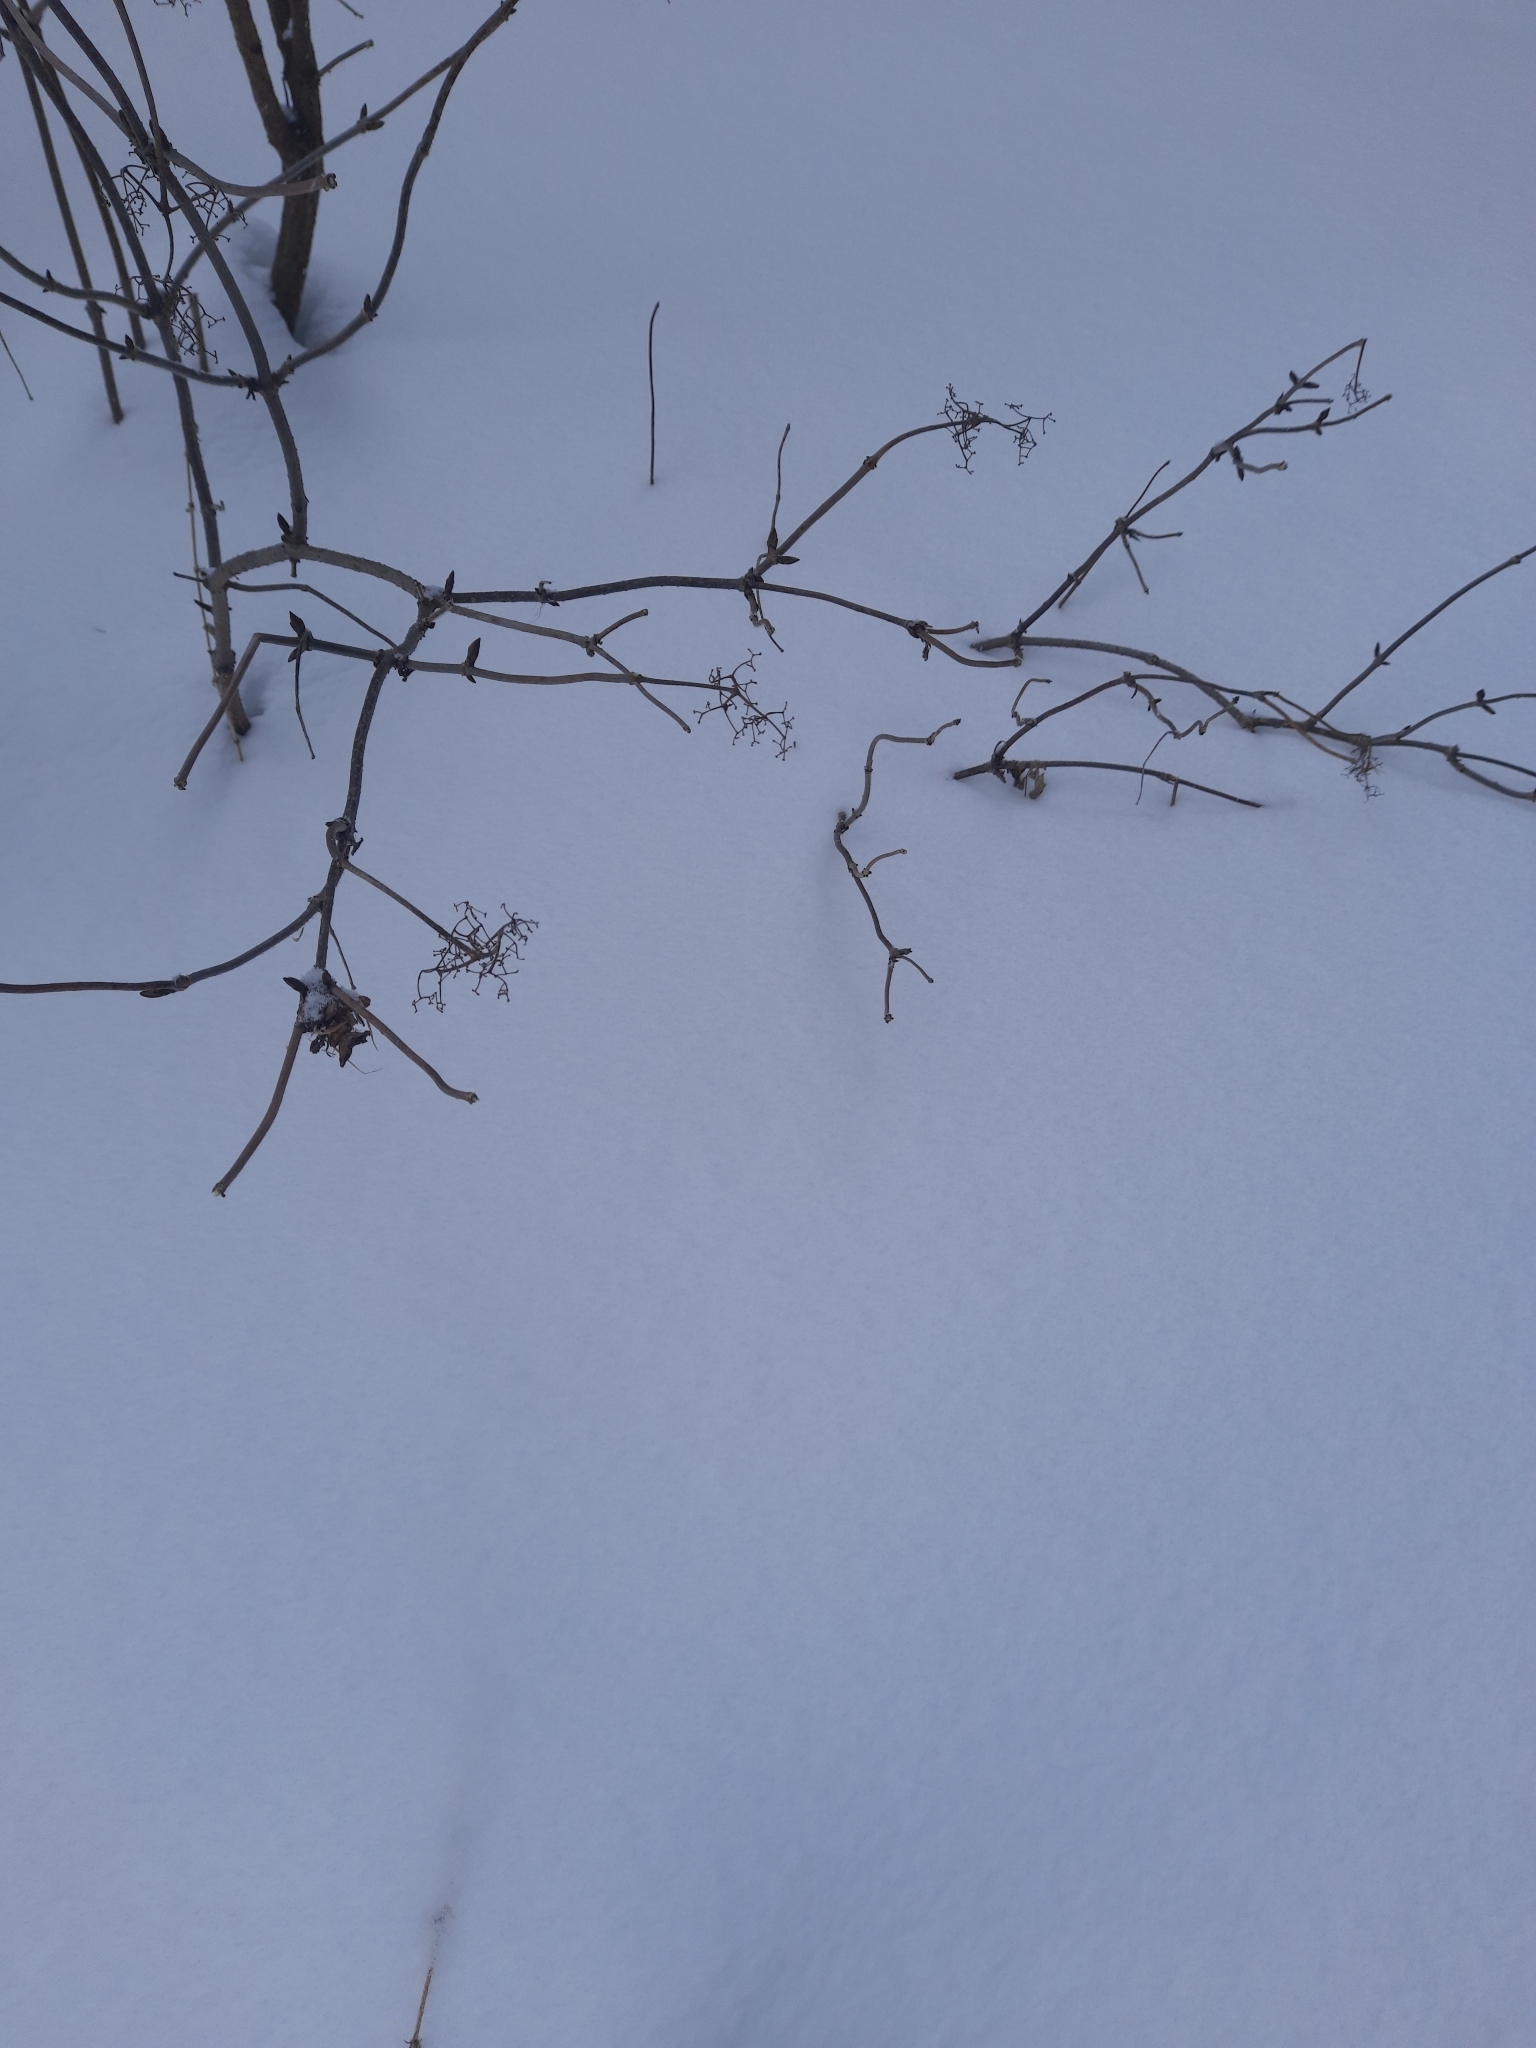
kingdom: Plantae
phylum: Tracheophyta
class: Magnoliopsida
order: Dipsacales
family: Viburnaceae
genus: Sambucus
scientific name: Sambucus sibirica
